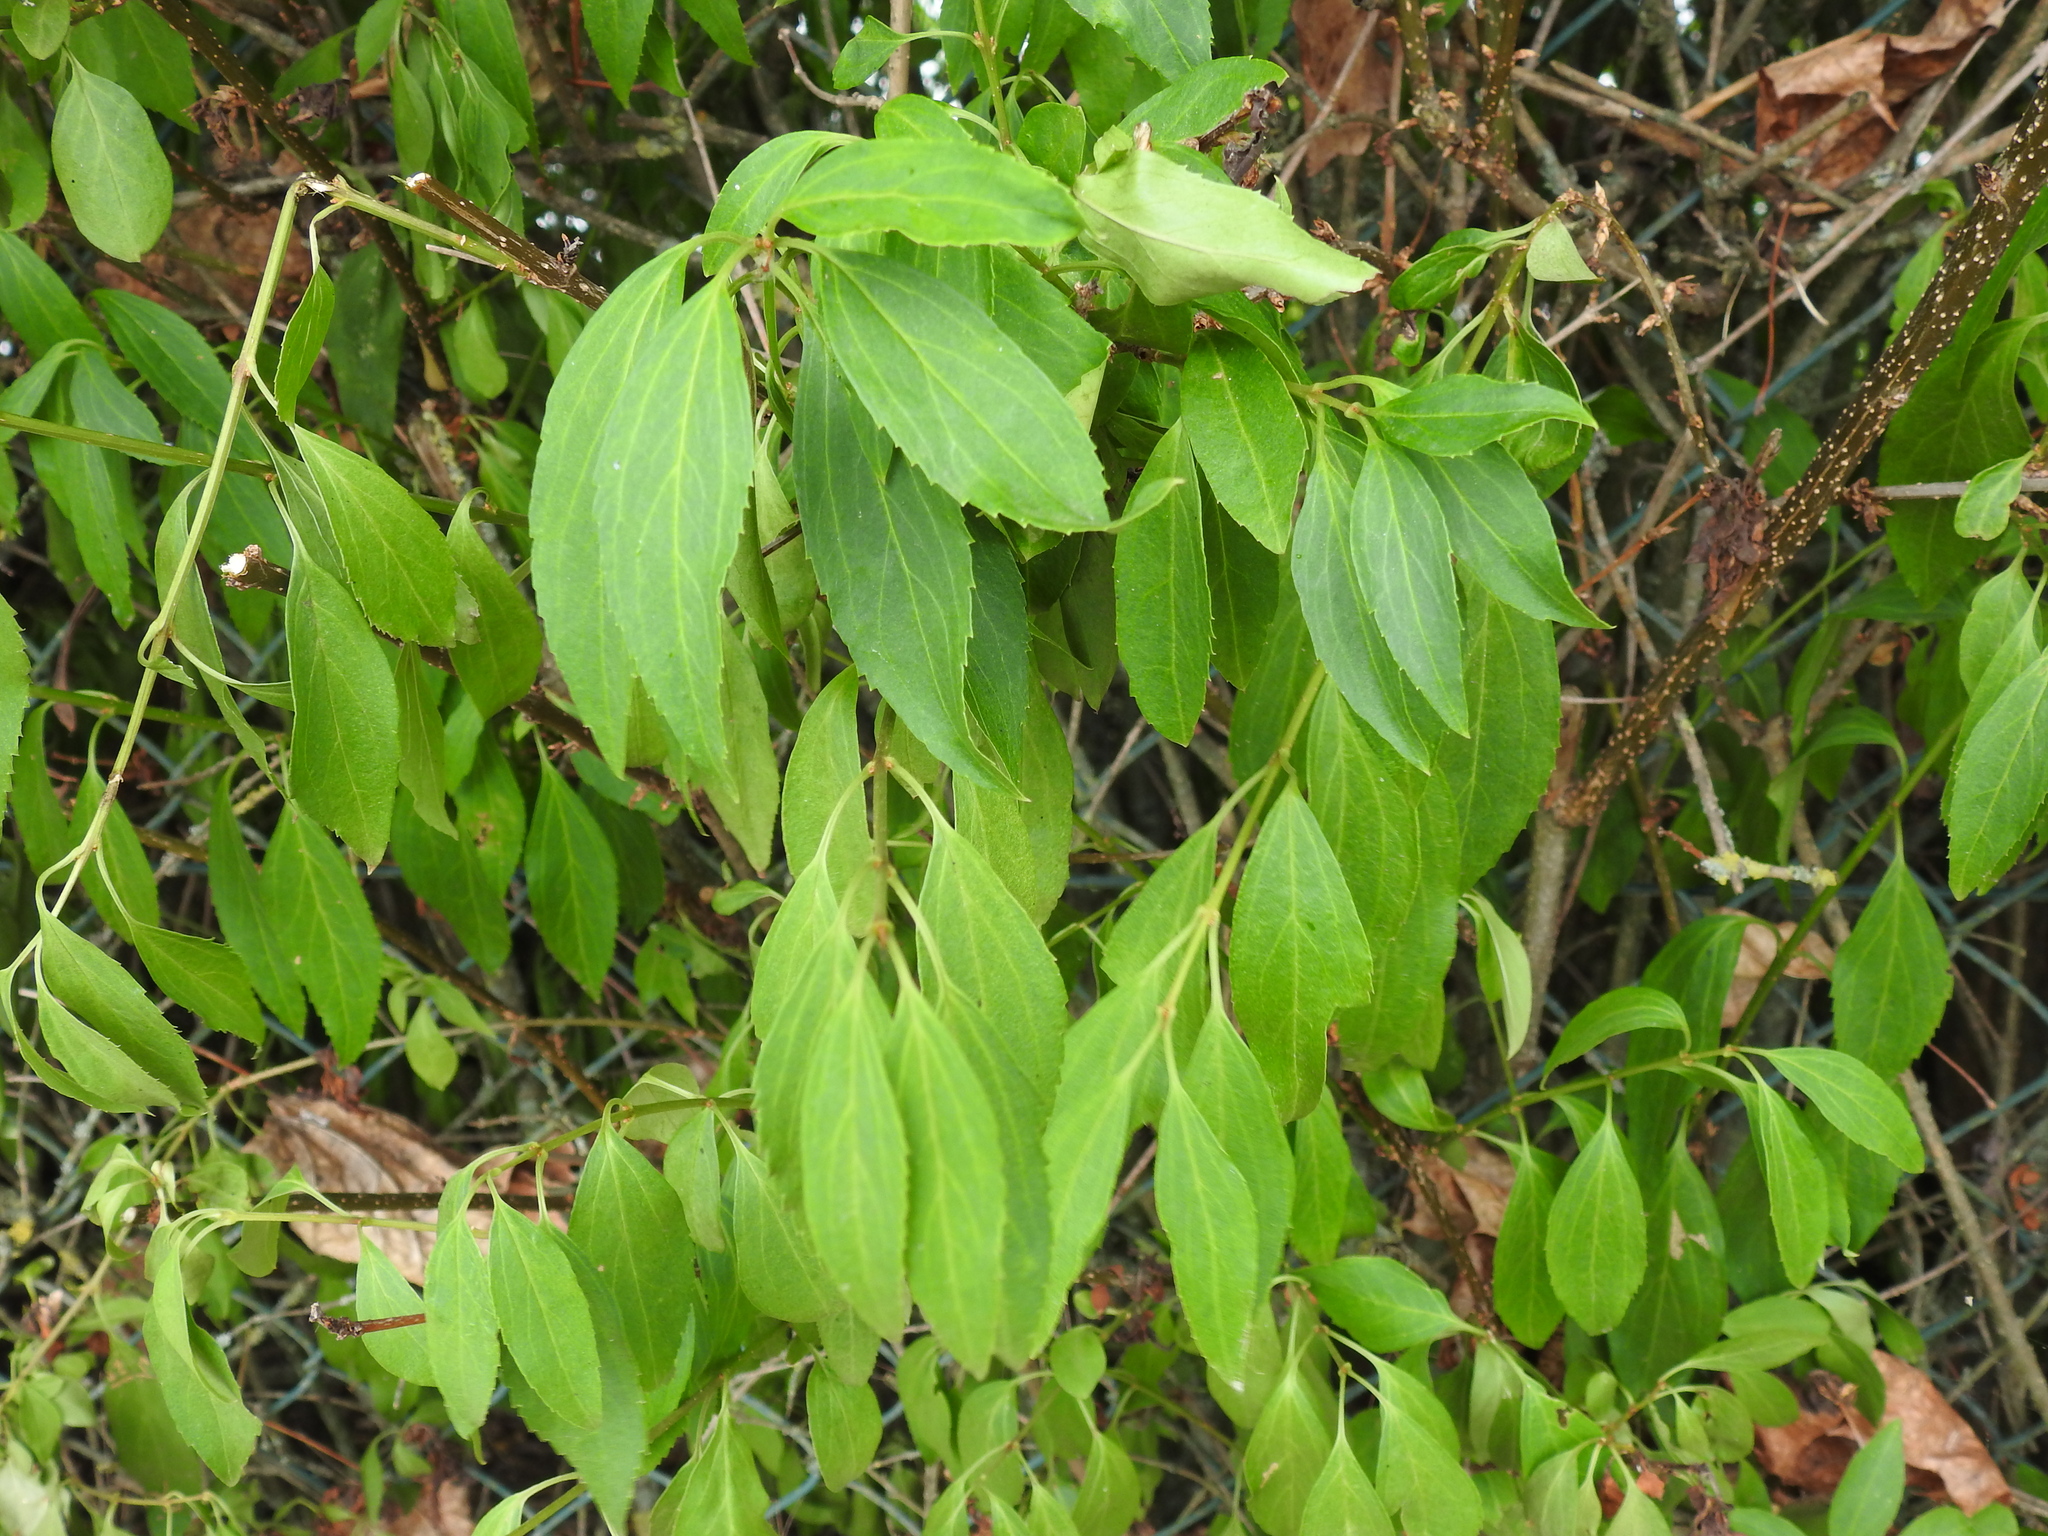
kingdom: Plantae
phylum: Tracheophyta
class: Magnoliopsida
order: Lamiales
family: Oleaceae
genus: Syringa
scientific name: Syringa vulgaris
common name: Common lilac
